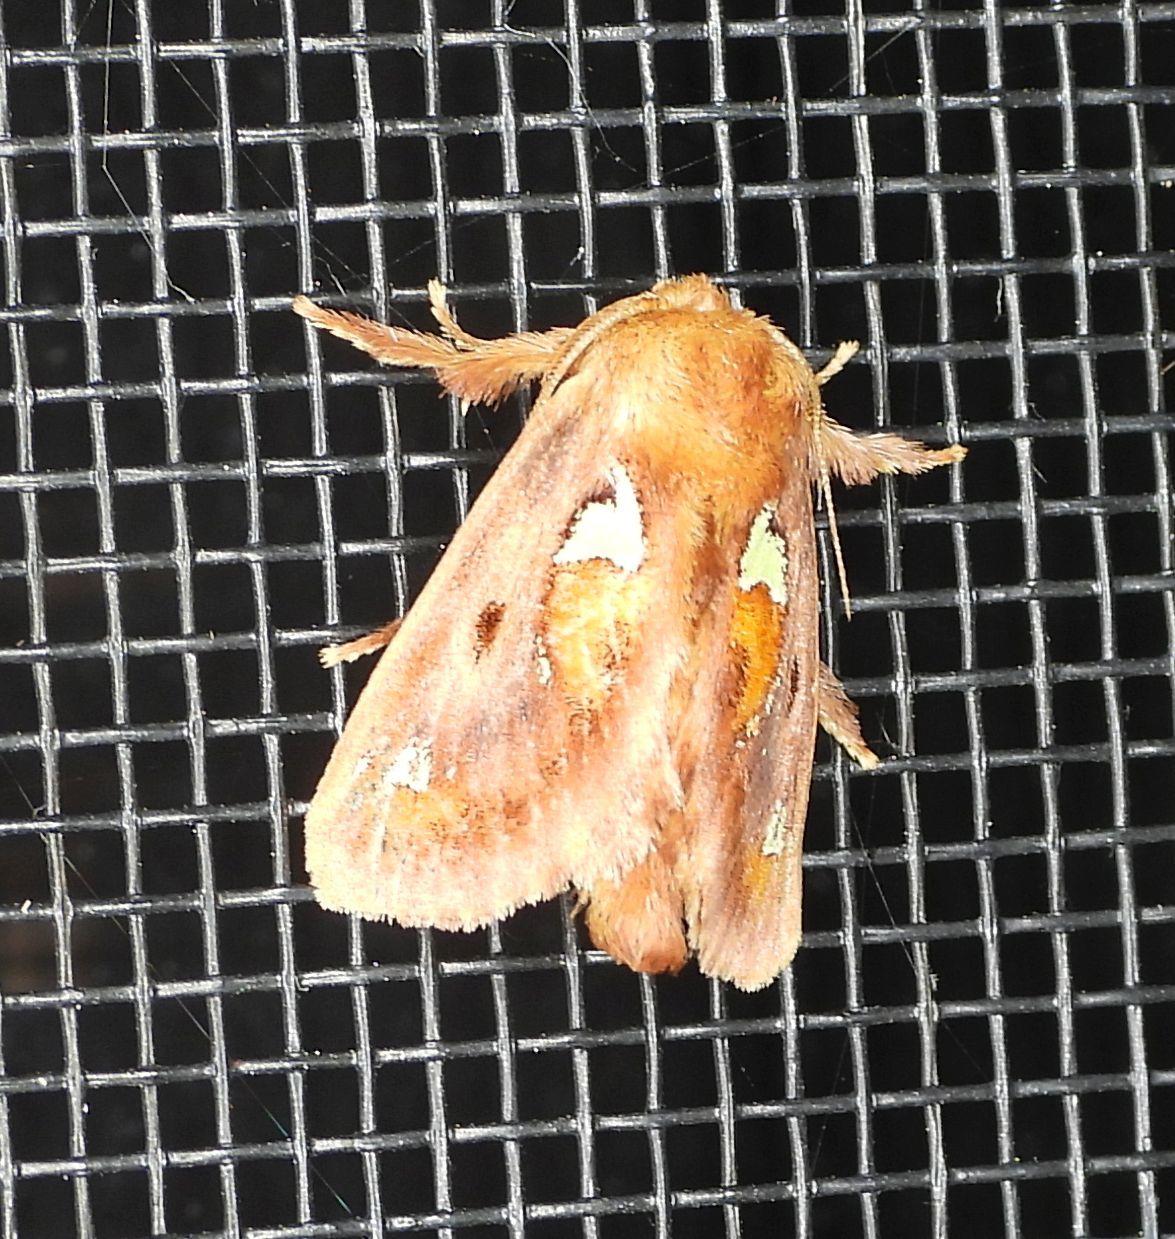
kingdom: Animalia
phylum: Arthropoda
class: Insecta
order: Lepidoptera
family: Limacodidae
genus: Euclea
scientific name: Euclea delphinii
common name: Spiny oak-slug moth
